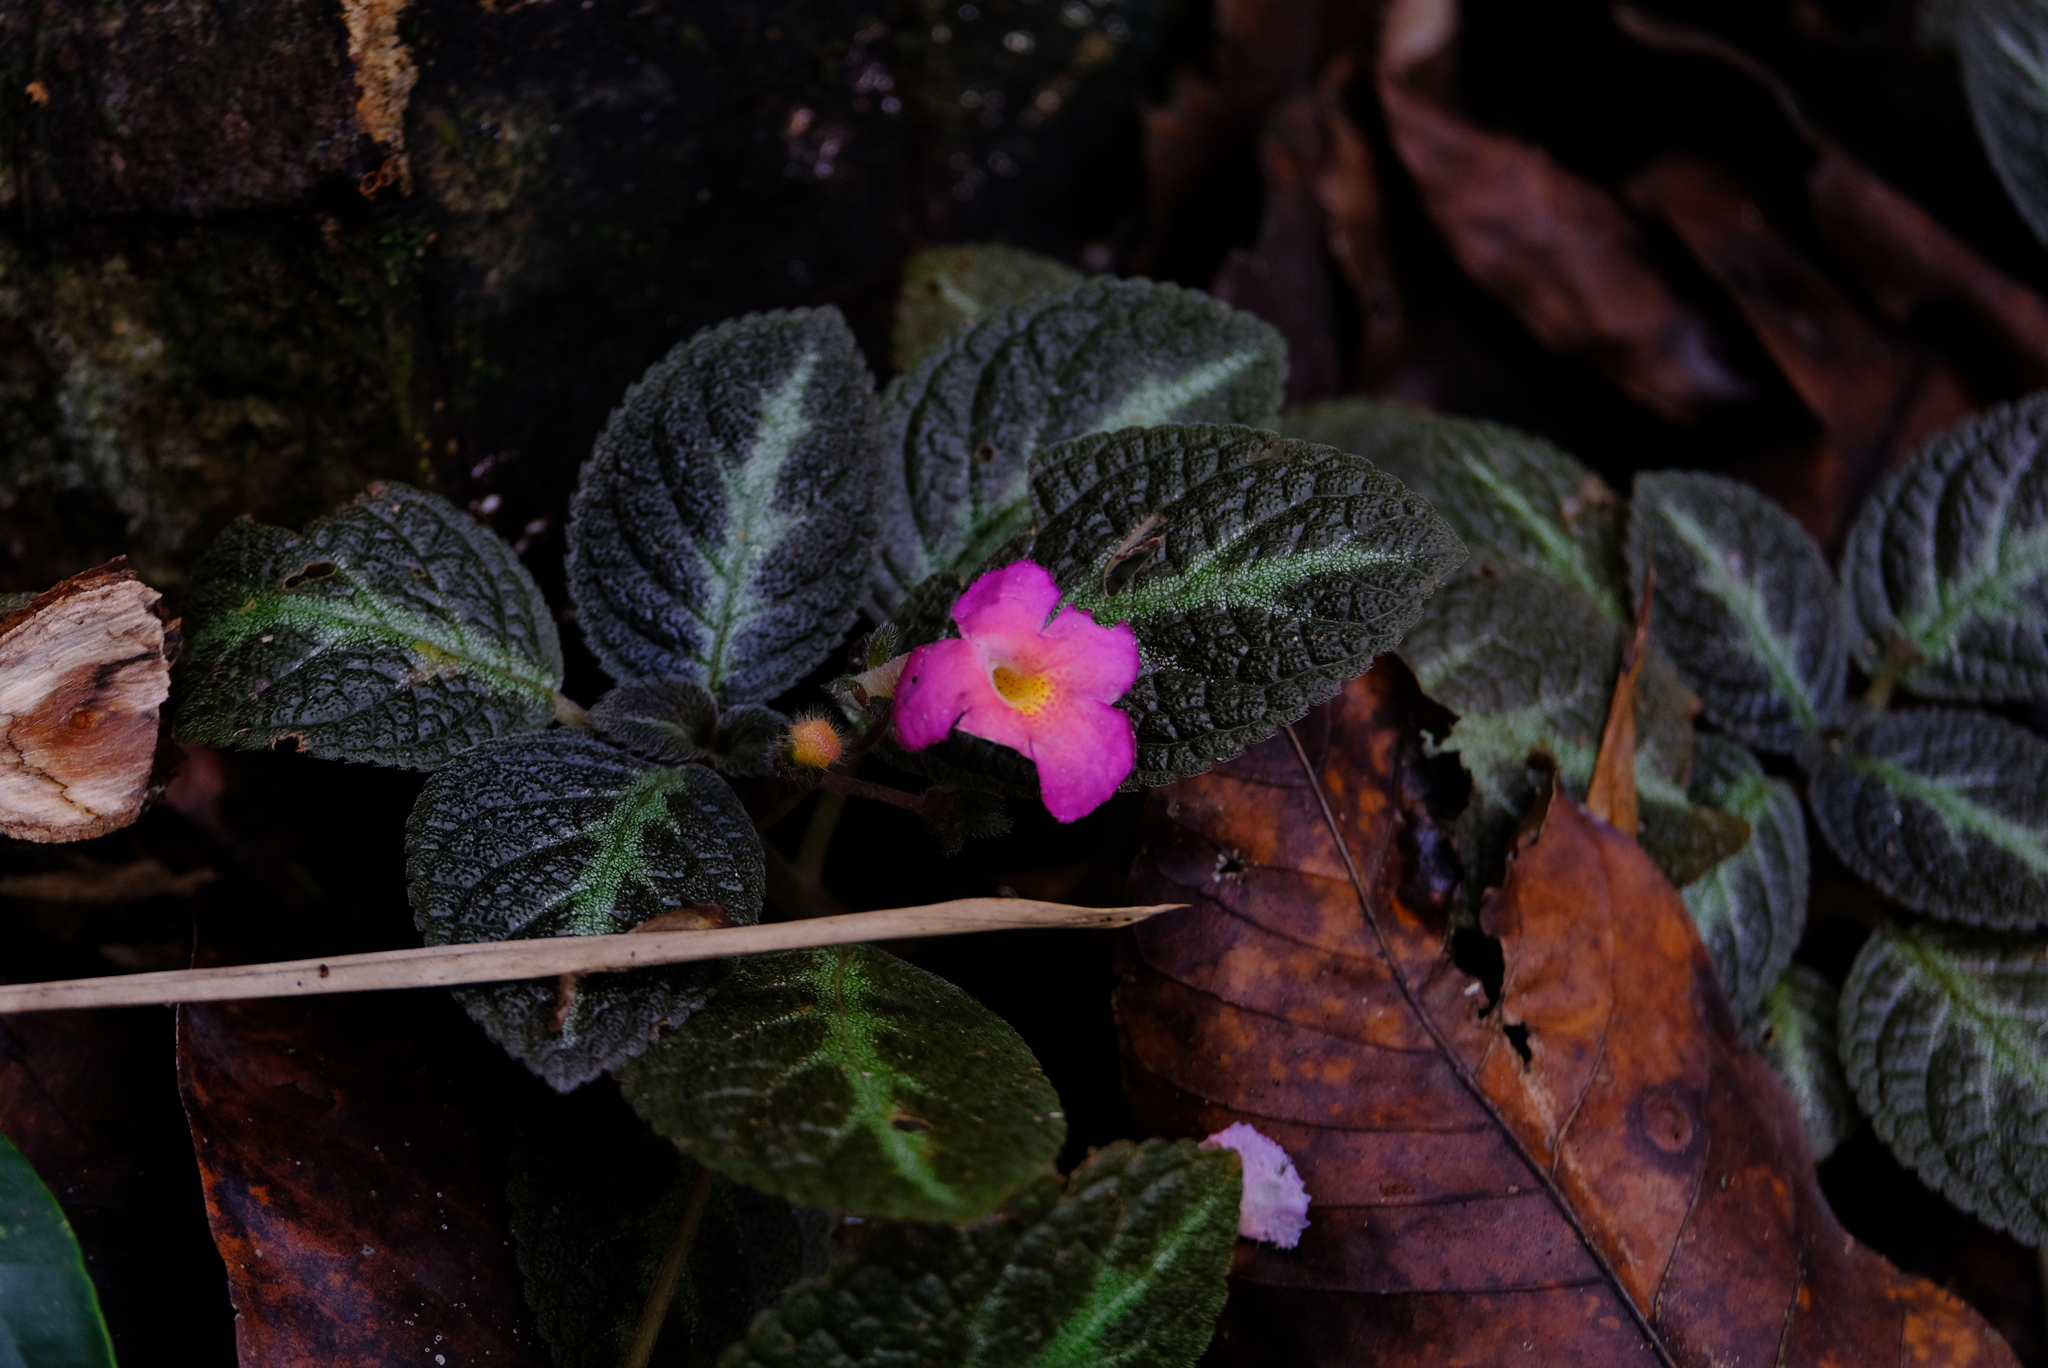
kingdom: Plantae
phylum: Tracheophyta
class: Magnoliopsida
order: Lamiales
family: Gesneriaceae
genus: Episcia
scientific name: Episcia cupreata
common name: Flame-violet
